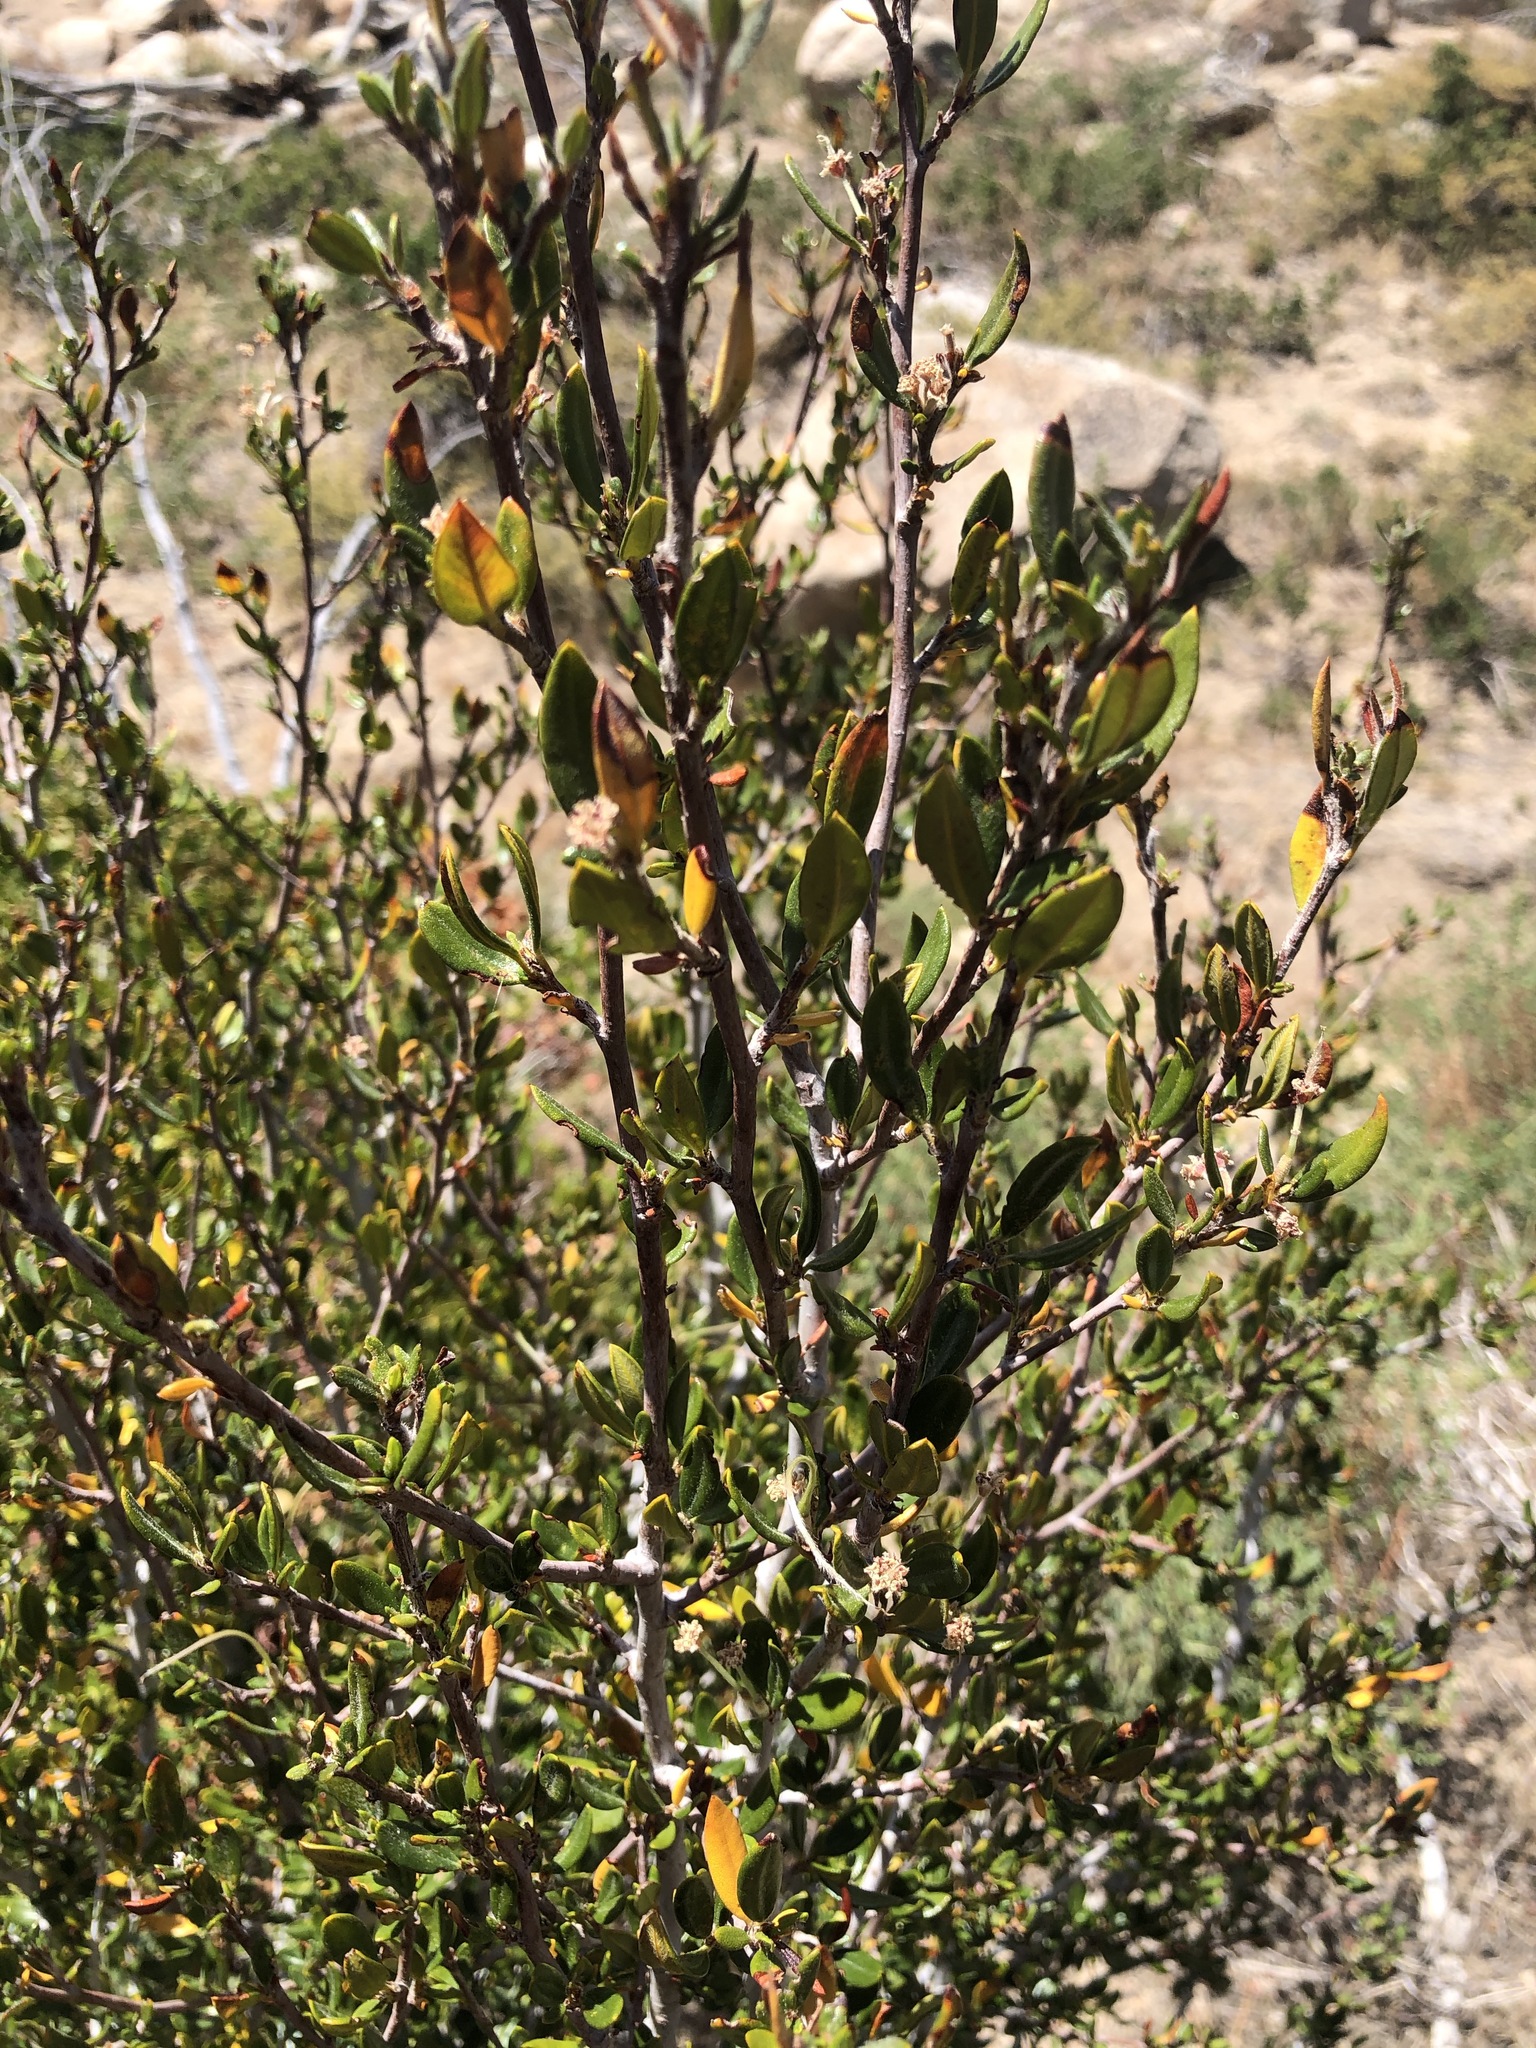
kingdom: Plantae
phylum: Tracheophyta
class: Magnoliopsida
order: Rosales
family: Rosaceae
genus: Cercocarpus
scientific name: Cercocarpus ledifolius
